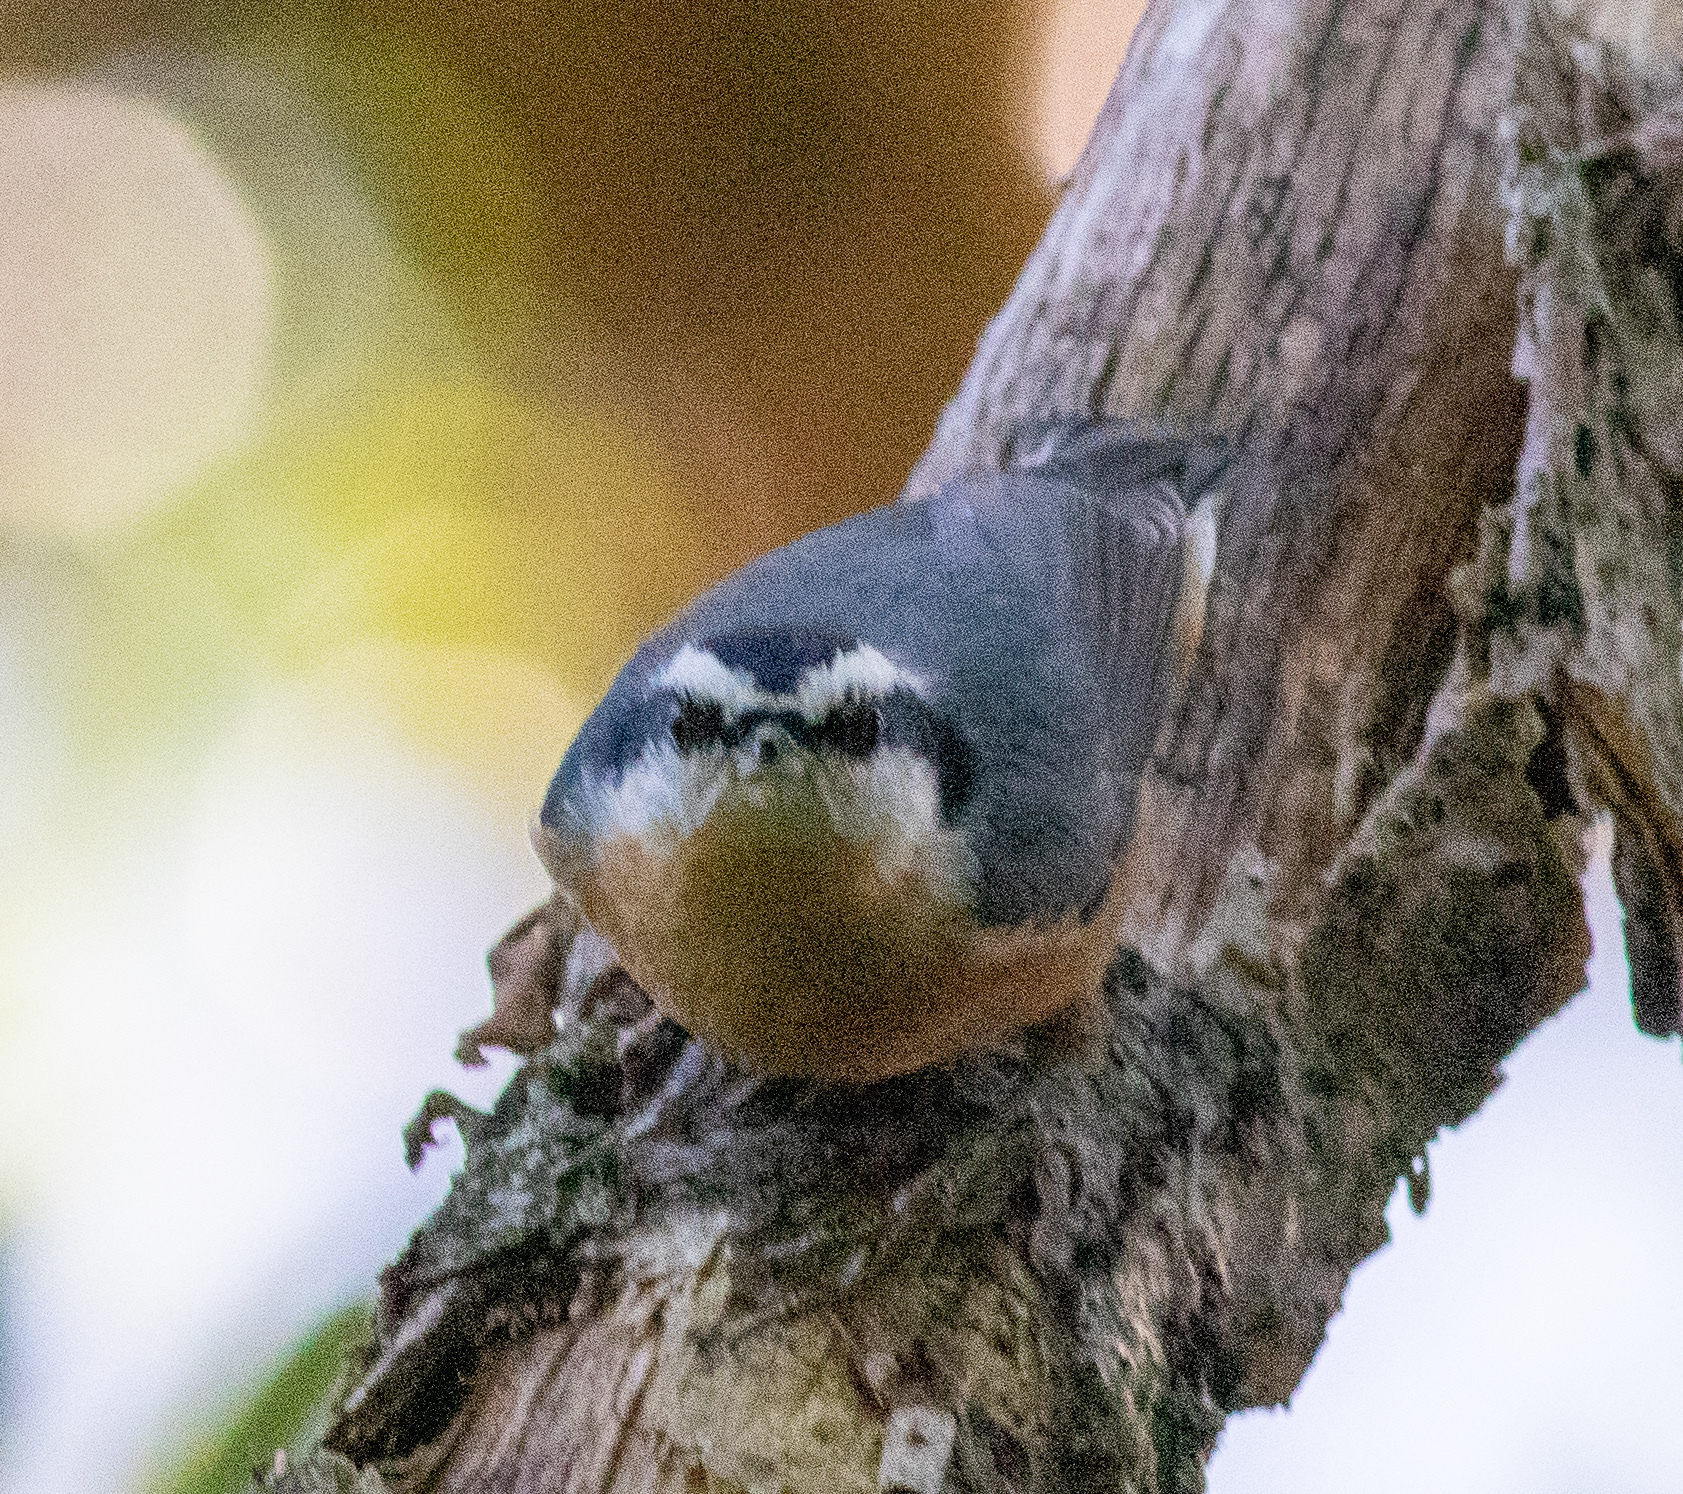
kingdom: Animalia
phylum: Chordata
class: Aves
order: Passeriformes
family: Sittidae
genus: Sitta
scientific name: Sitta canadensis
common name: Red-breasted nuthatch
